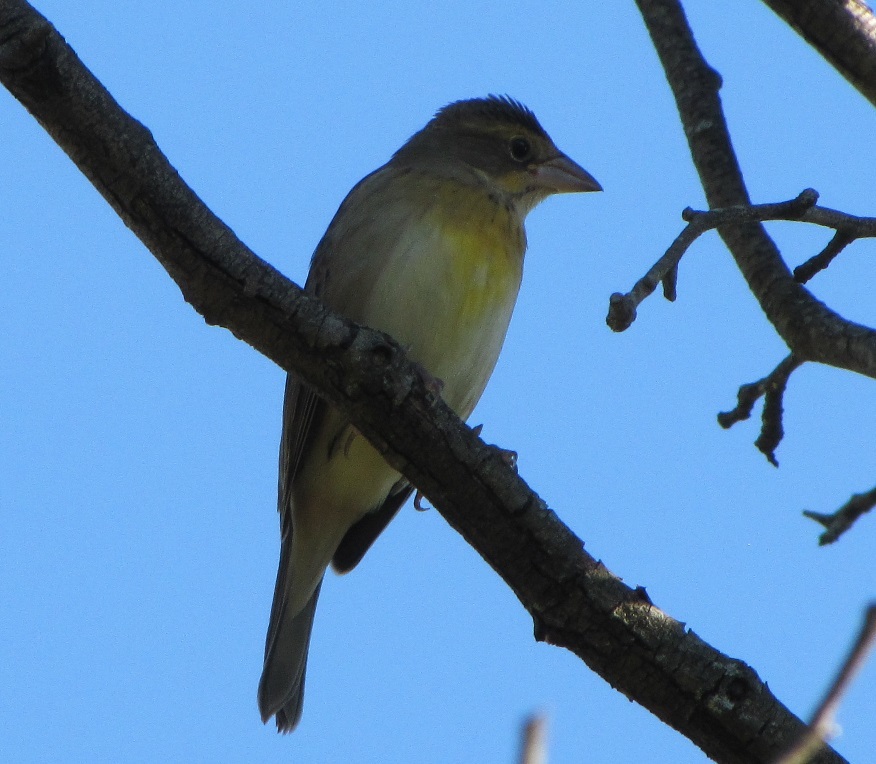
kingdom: Animalia
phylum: Chordata
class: Aves
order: Passeriformes
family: Cardinalidae
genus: Spiza
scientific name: Spiza americana
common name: Dickcissel
